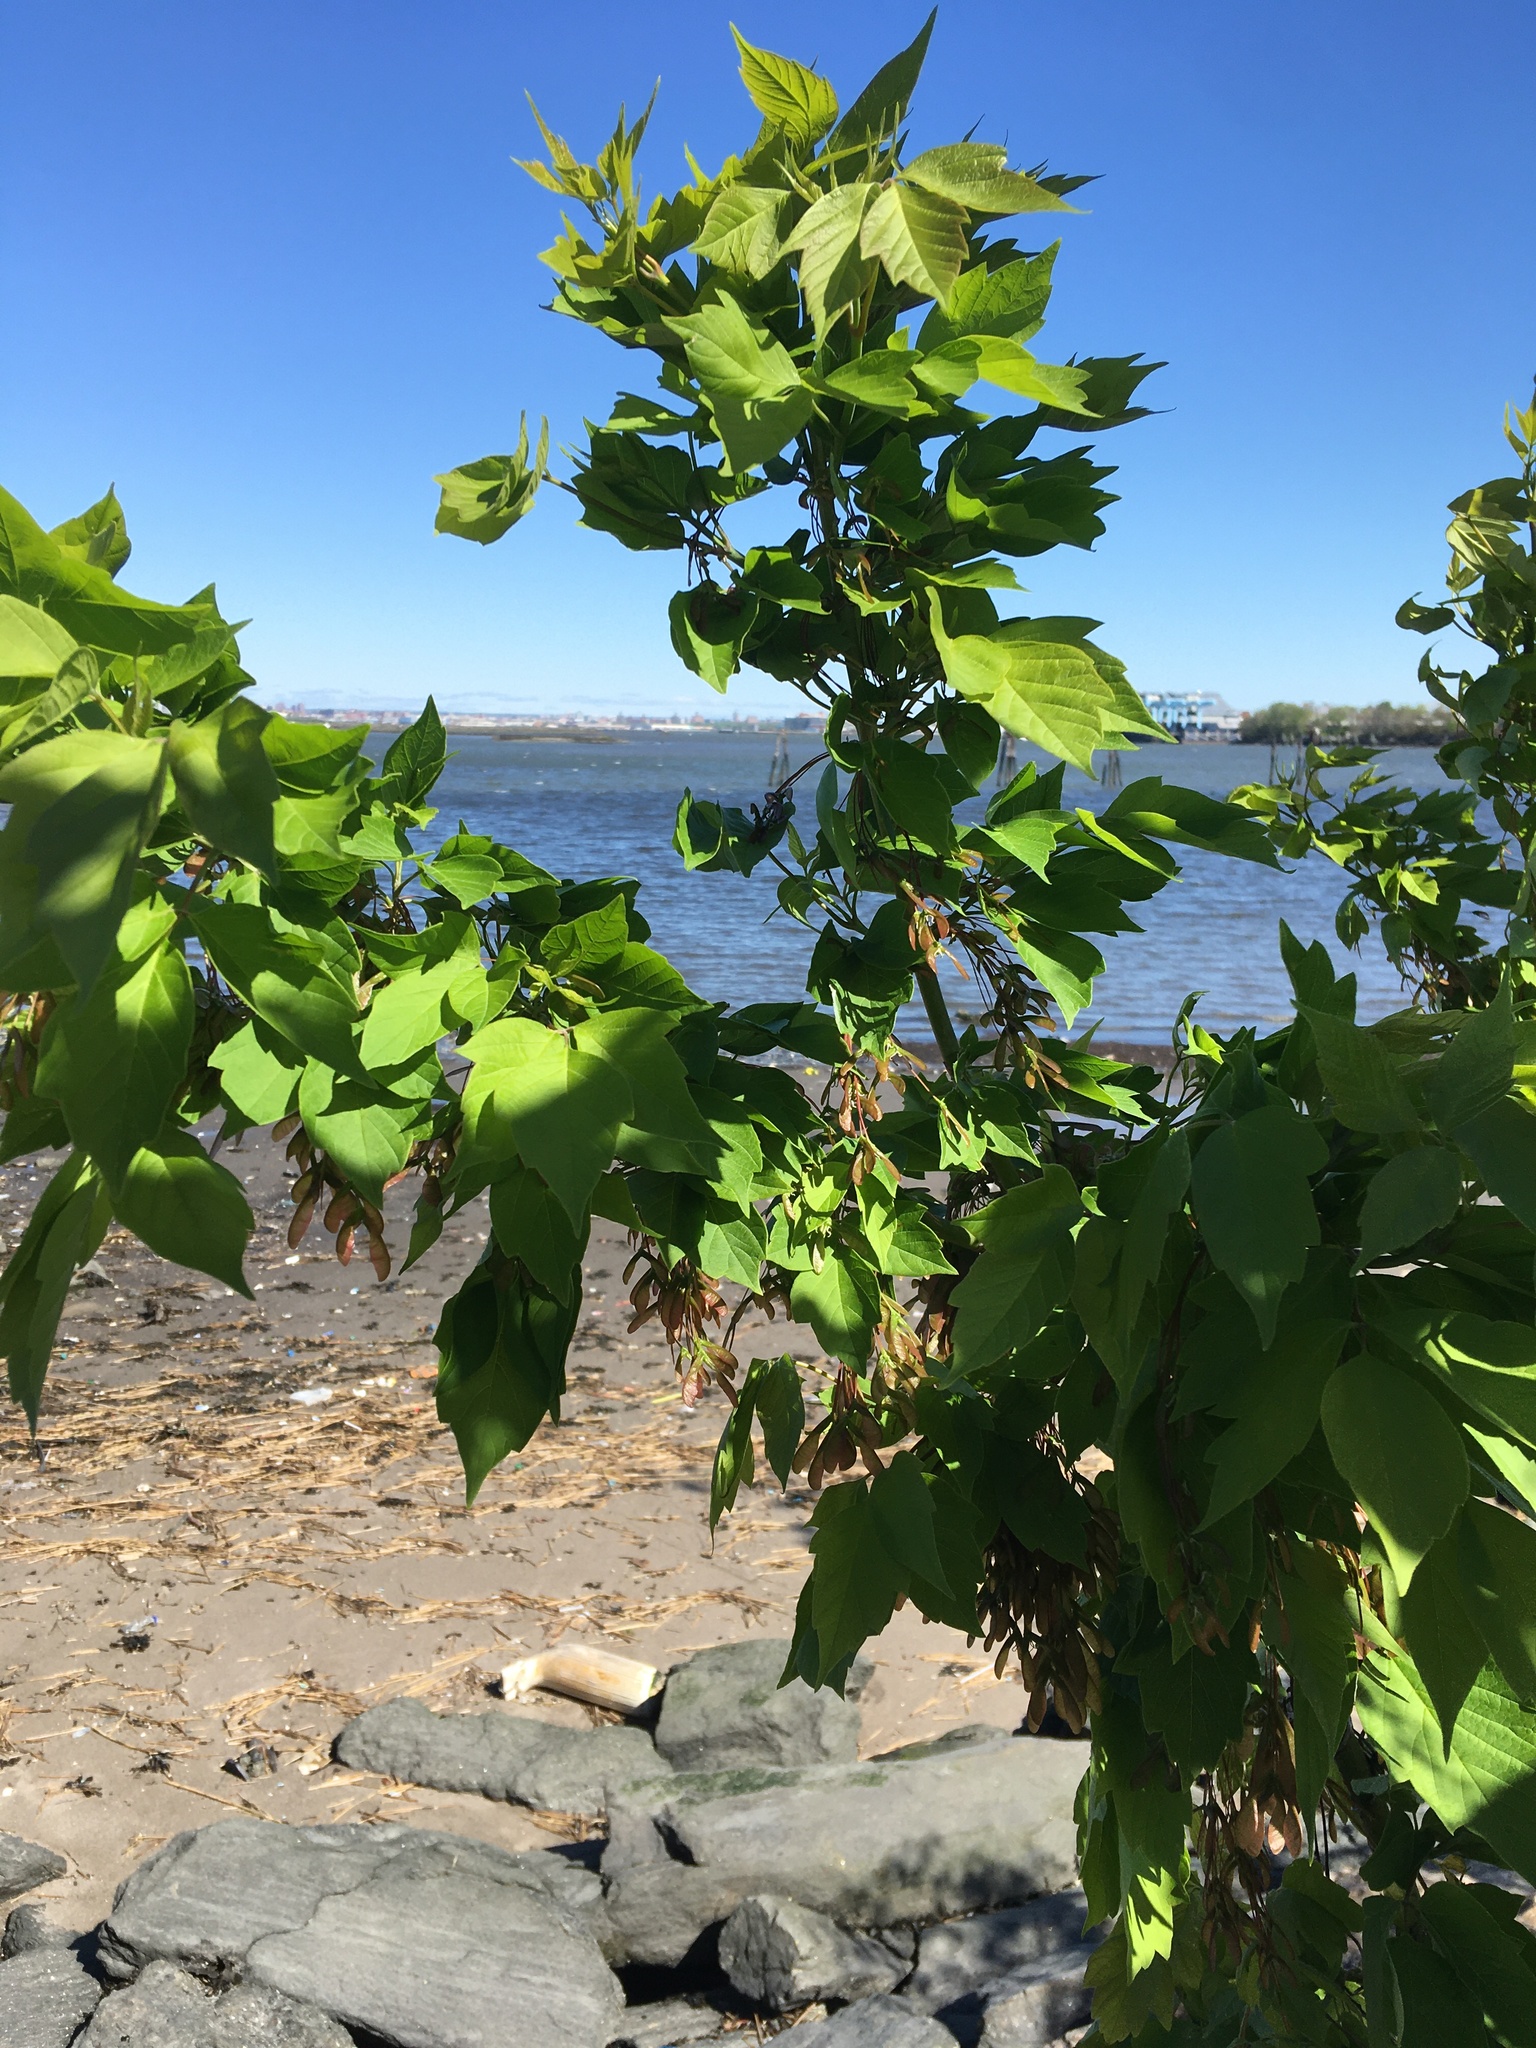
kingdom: Plantae
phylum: Tracheophyta
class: Magnoliopsida
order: Sapindales
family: Sapindaceae
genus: Acer
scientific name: Acer negundo
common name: Ashleaf maple
